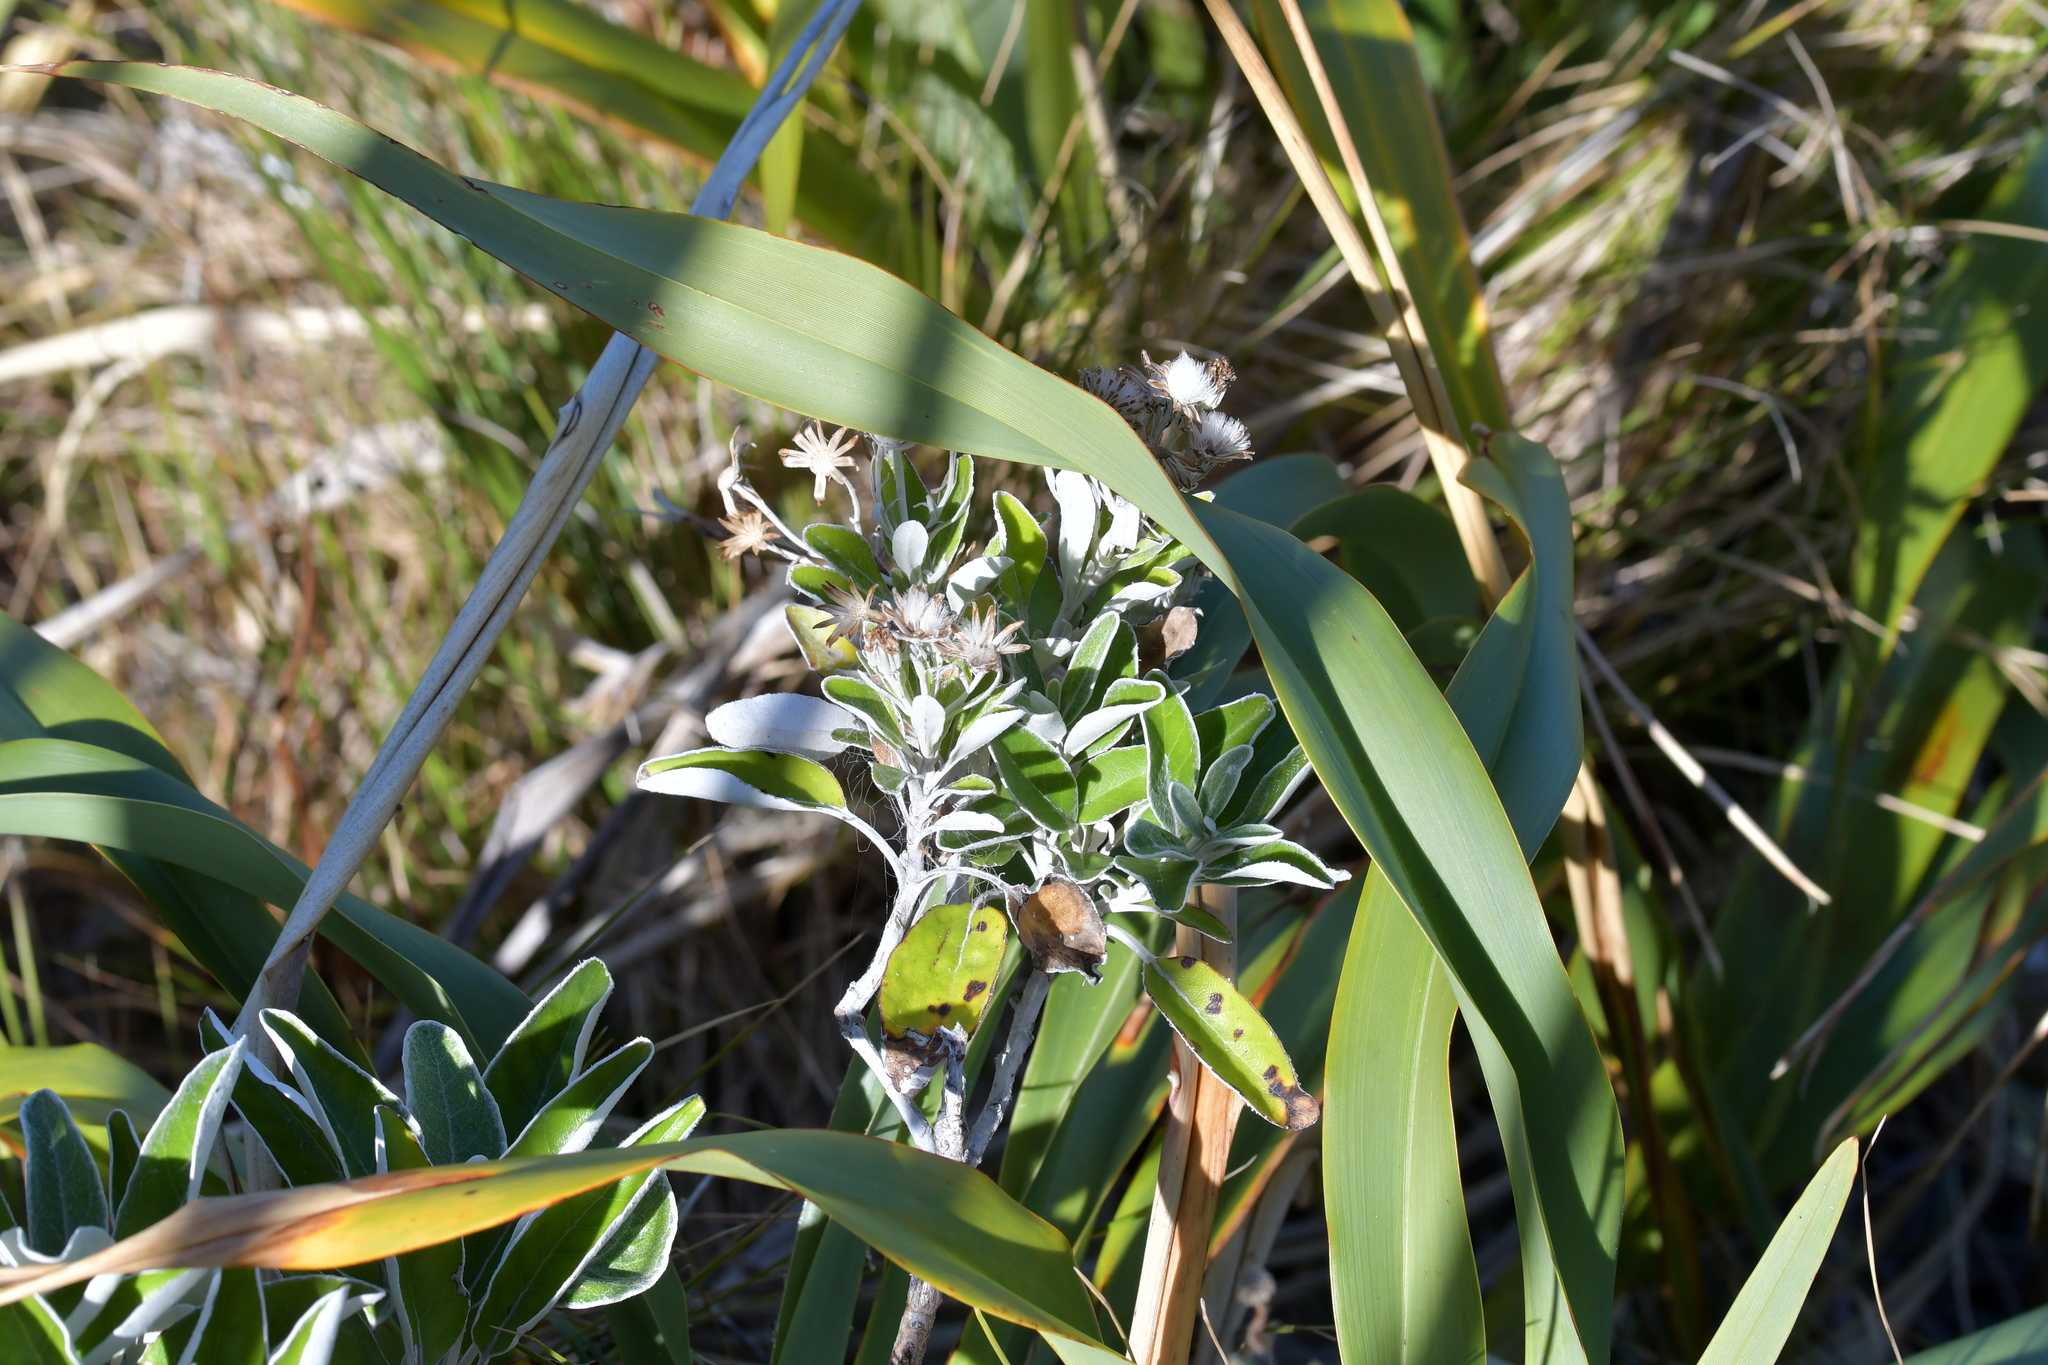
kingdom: Plantae
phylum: Tracheophyta
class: Magnoliopsida
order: Asterales
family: Asteraceae
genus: Brachyglottis
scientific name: Brachyglottis greyi
